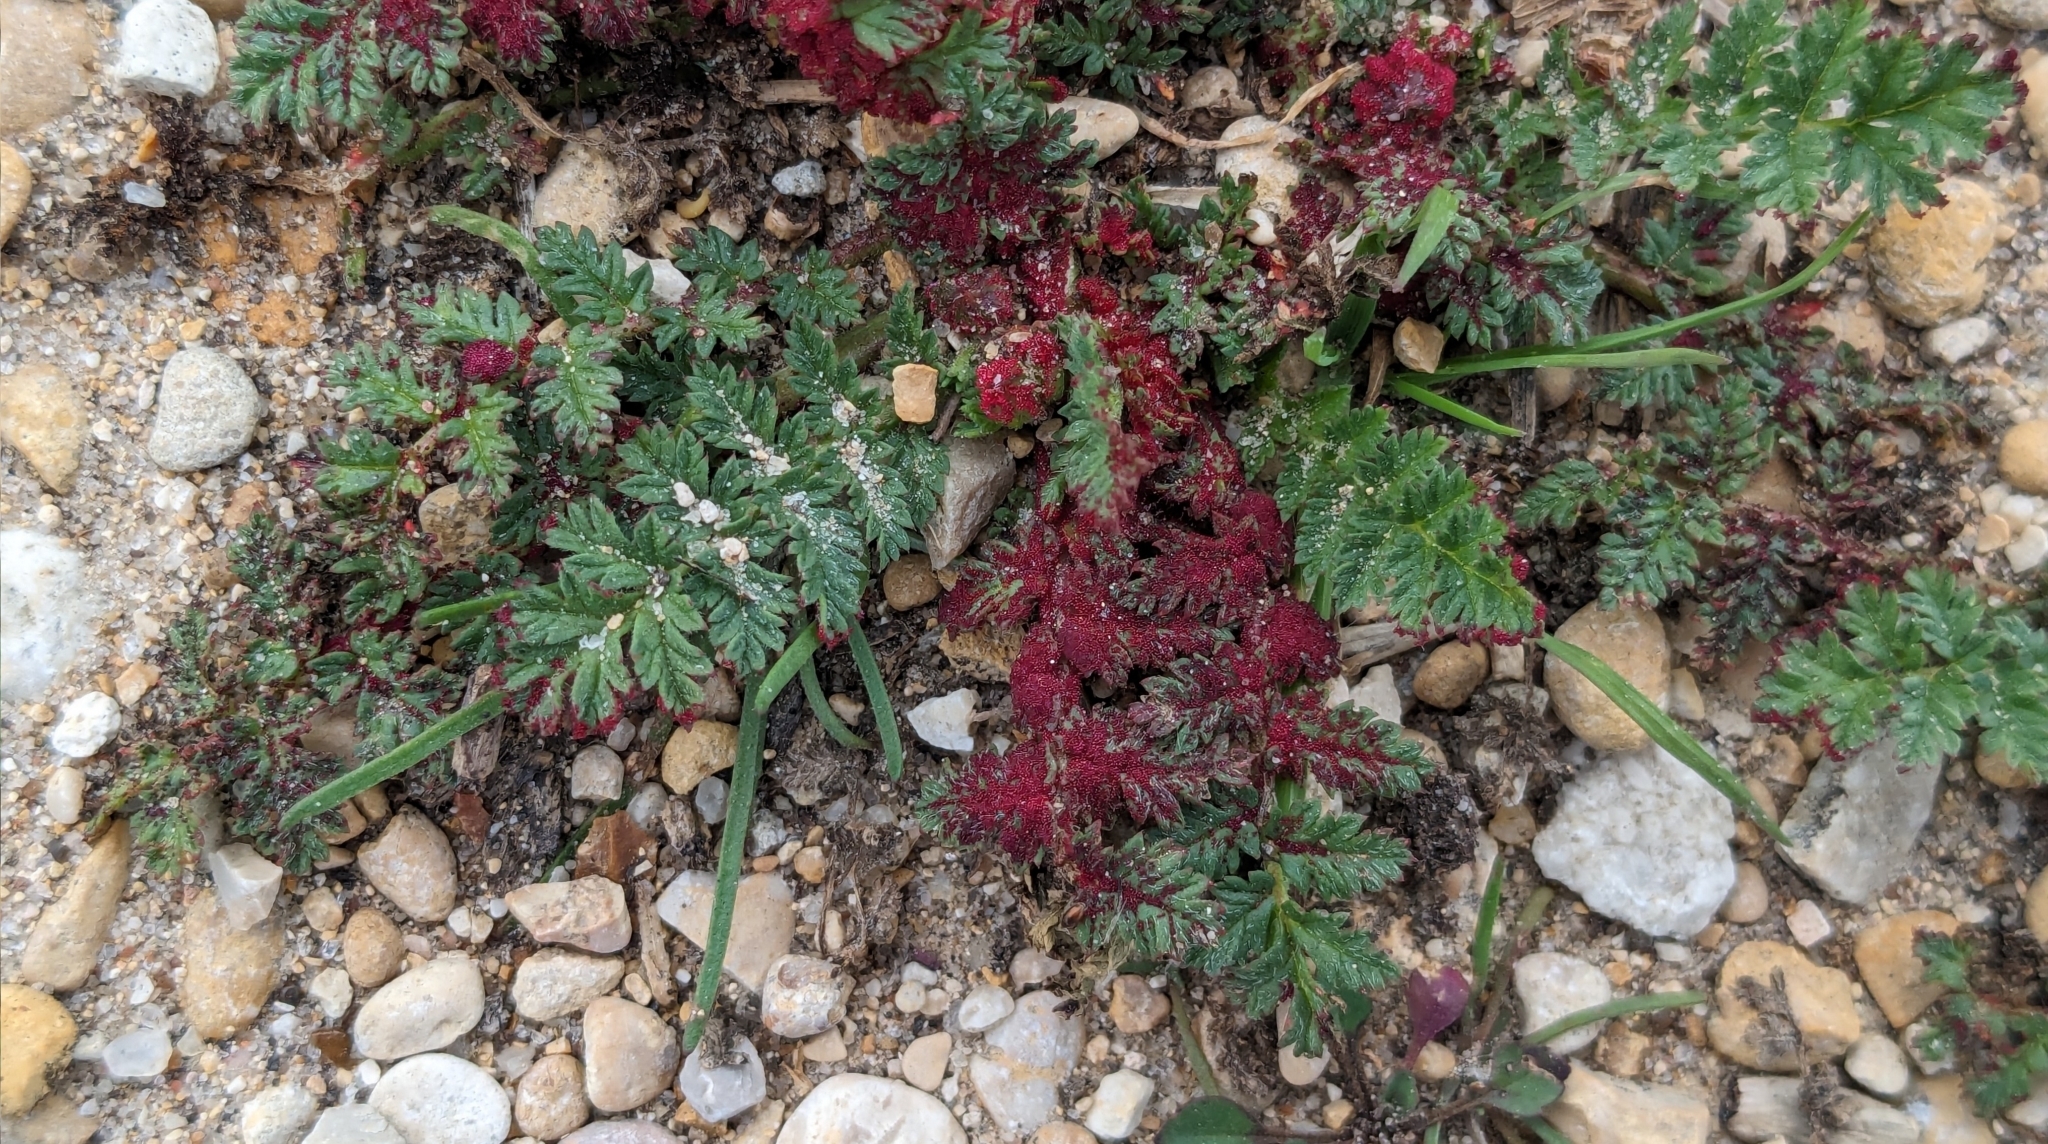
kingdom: Plantae
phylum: Tracheophyta
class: Magnoliopsida
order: Geraniales
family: Geraniaceae
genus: Erodium
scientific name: Erodium cicutarium
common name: Common stork's-bill
